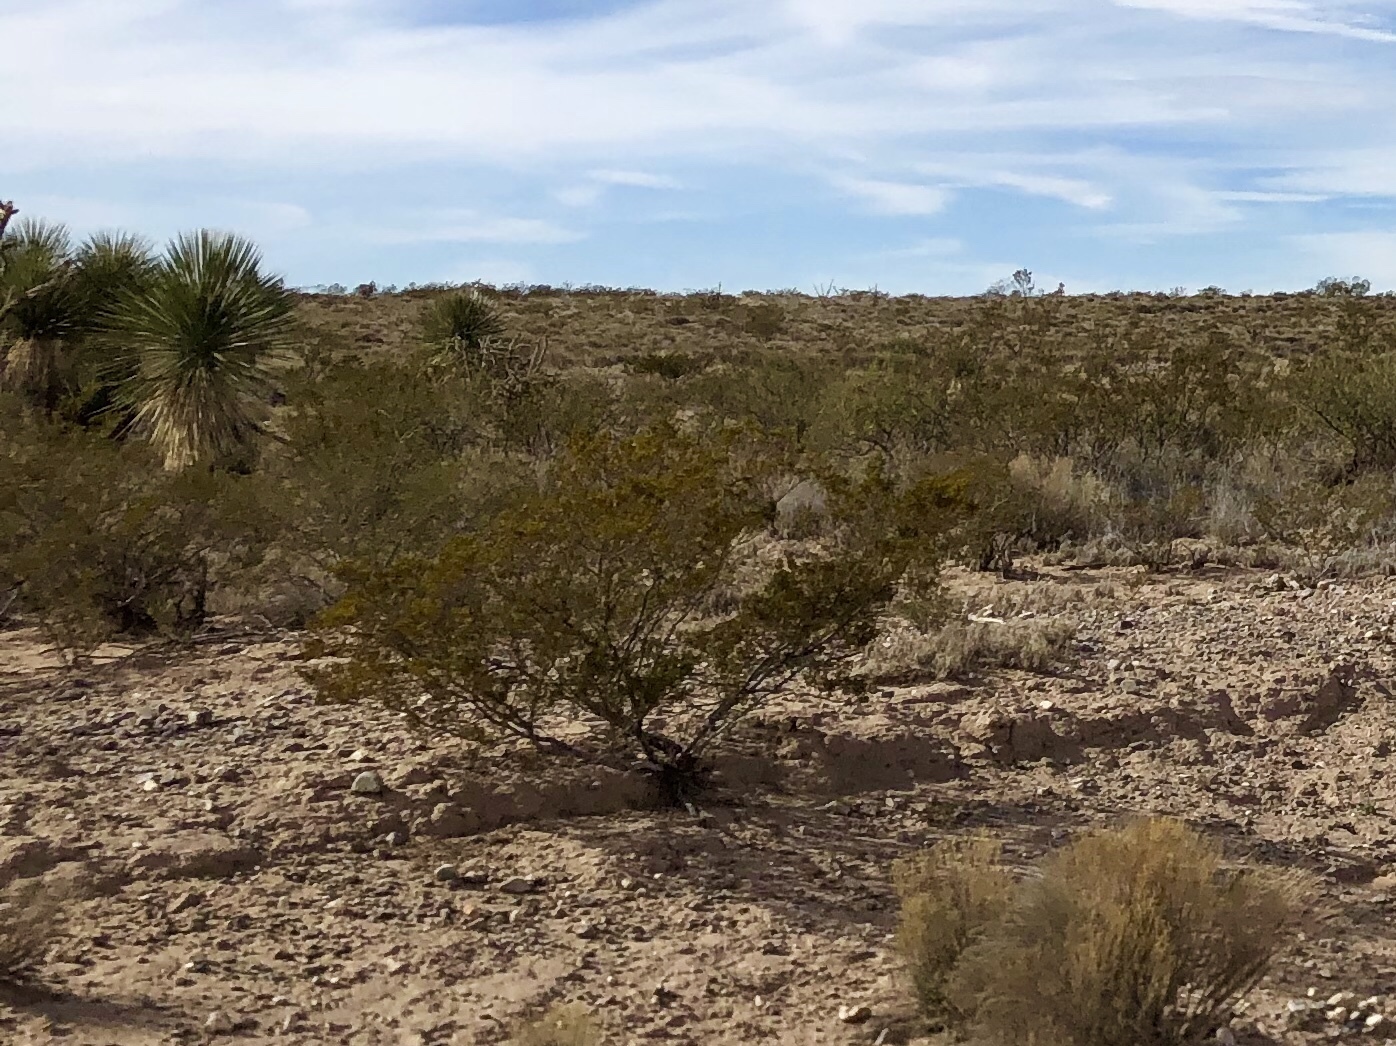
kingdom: Plantae
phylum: Tracheophyta
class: Magnoliopsida
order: Zygophyllales
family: Zygophyllaceae
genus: Larrea
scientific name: Larrea tridentata
